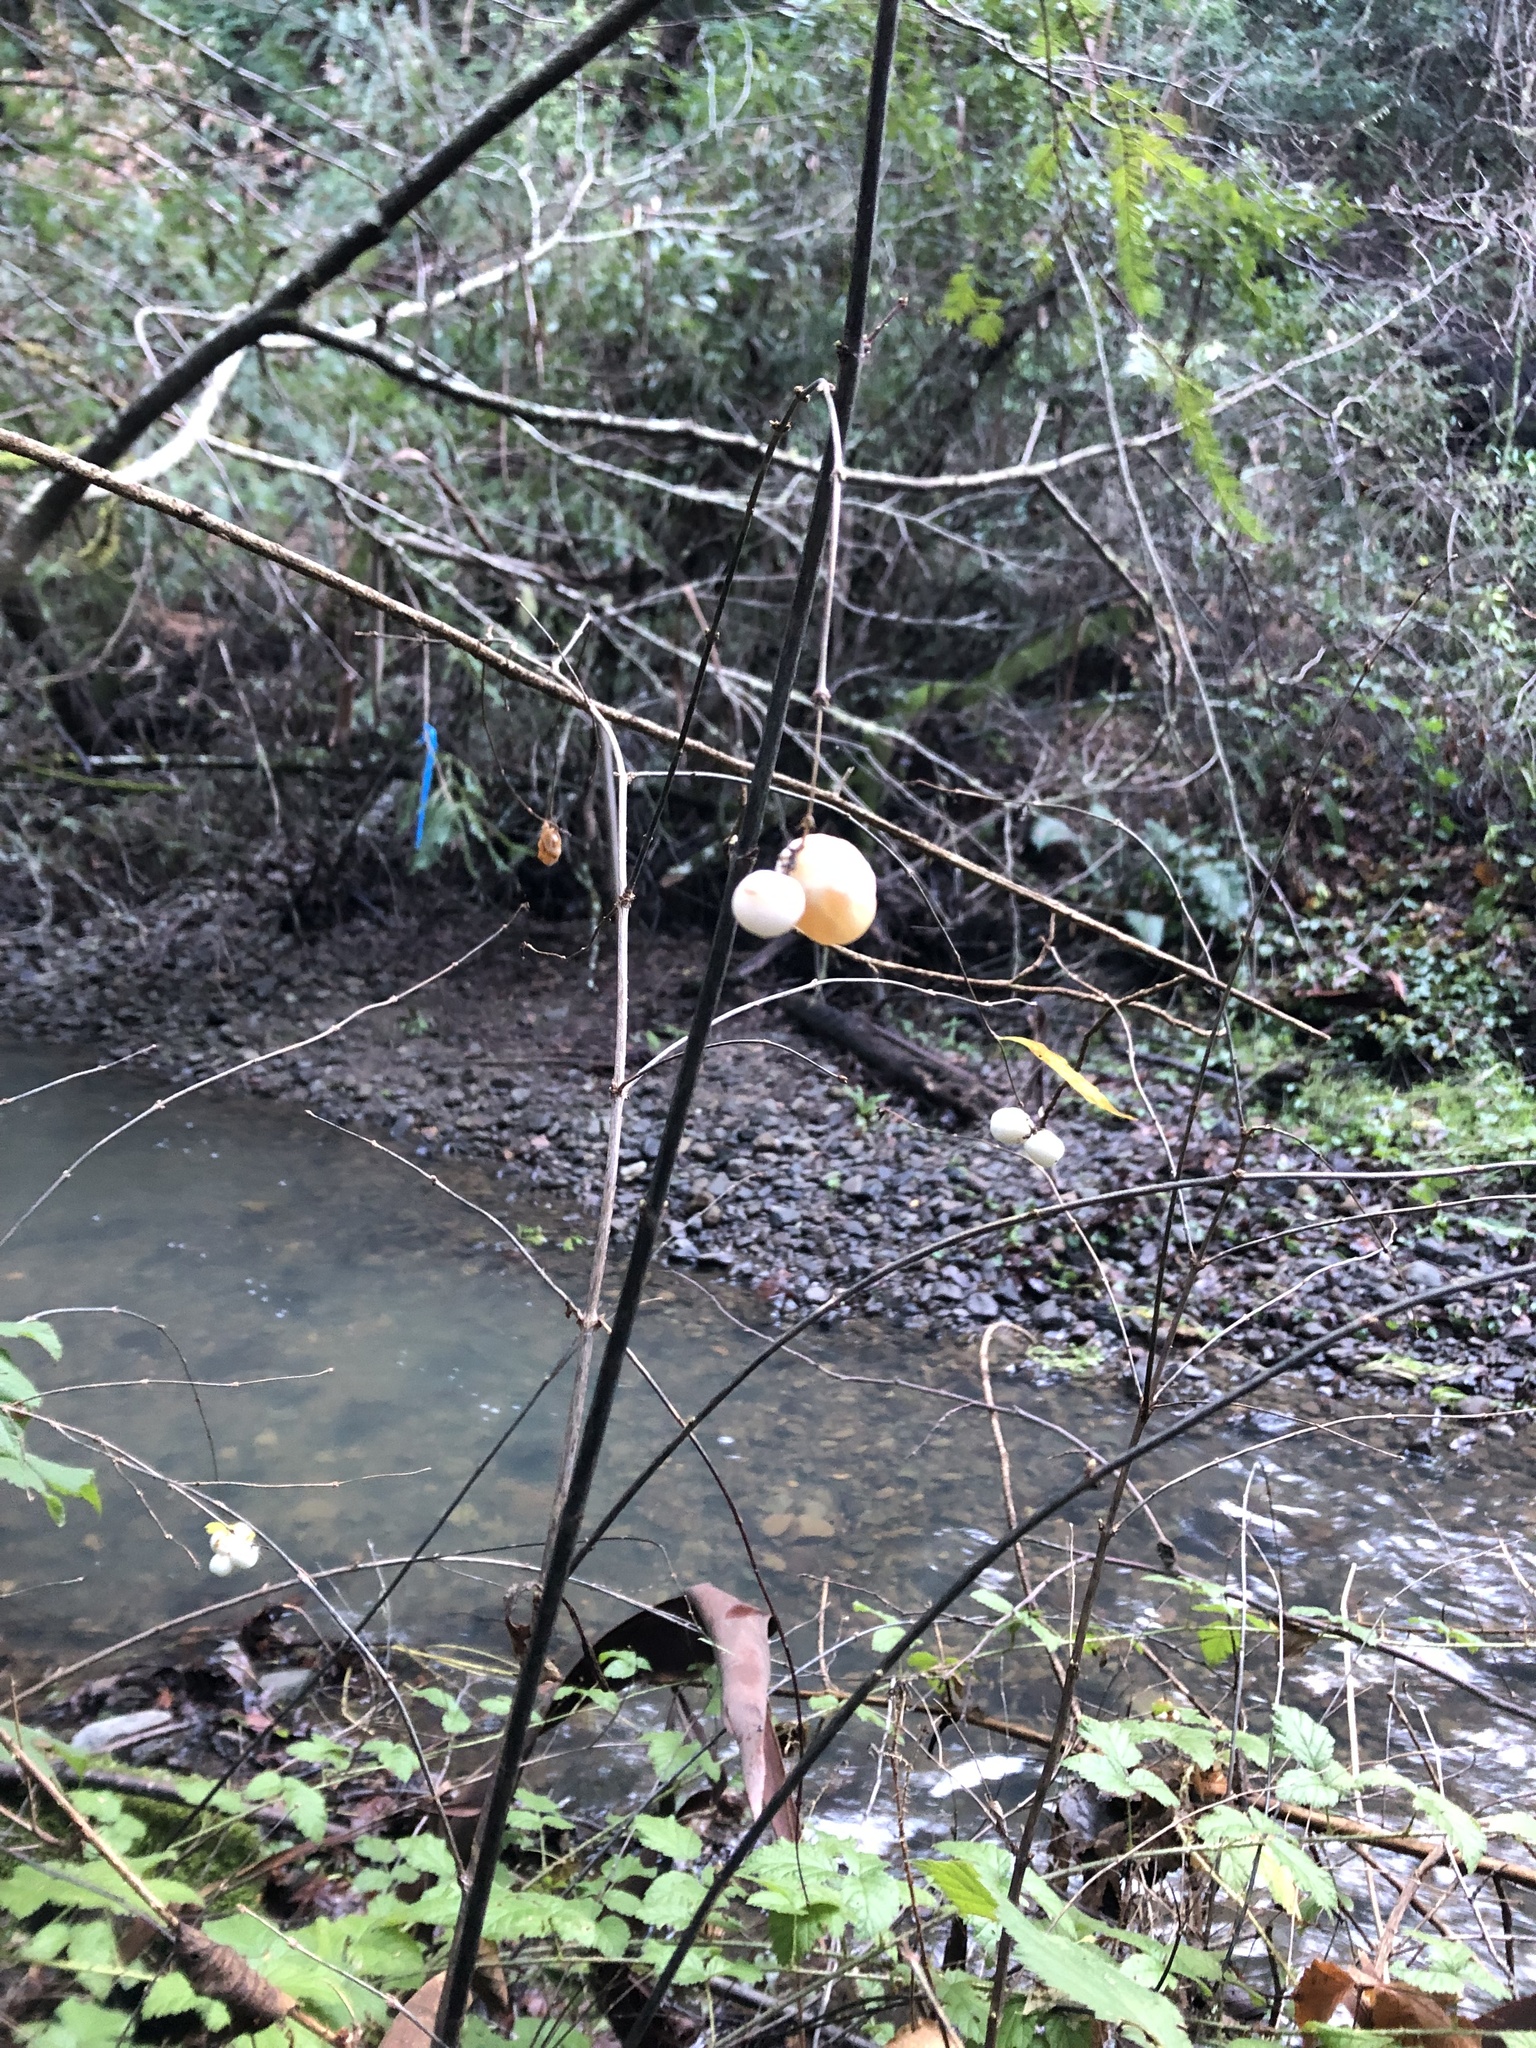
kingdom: Plantae
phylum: Tracheophyta
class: Magnoliopsida
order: Dipsacales
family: Caprifoliaceae
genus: Symphoricarpos
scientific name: Symphoricarpos albus
